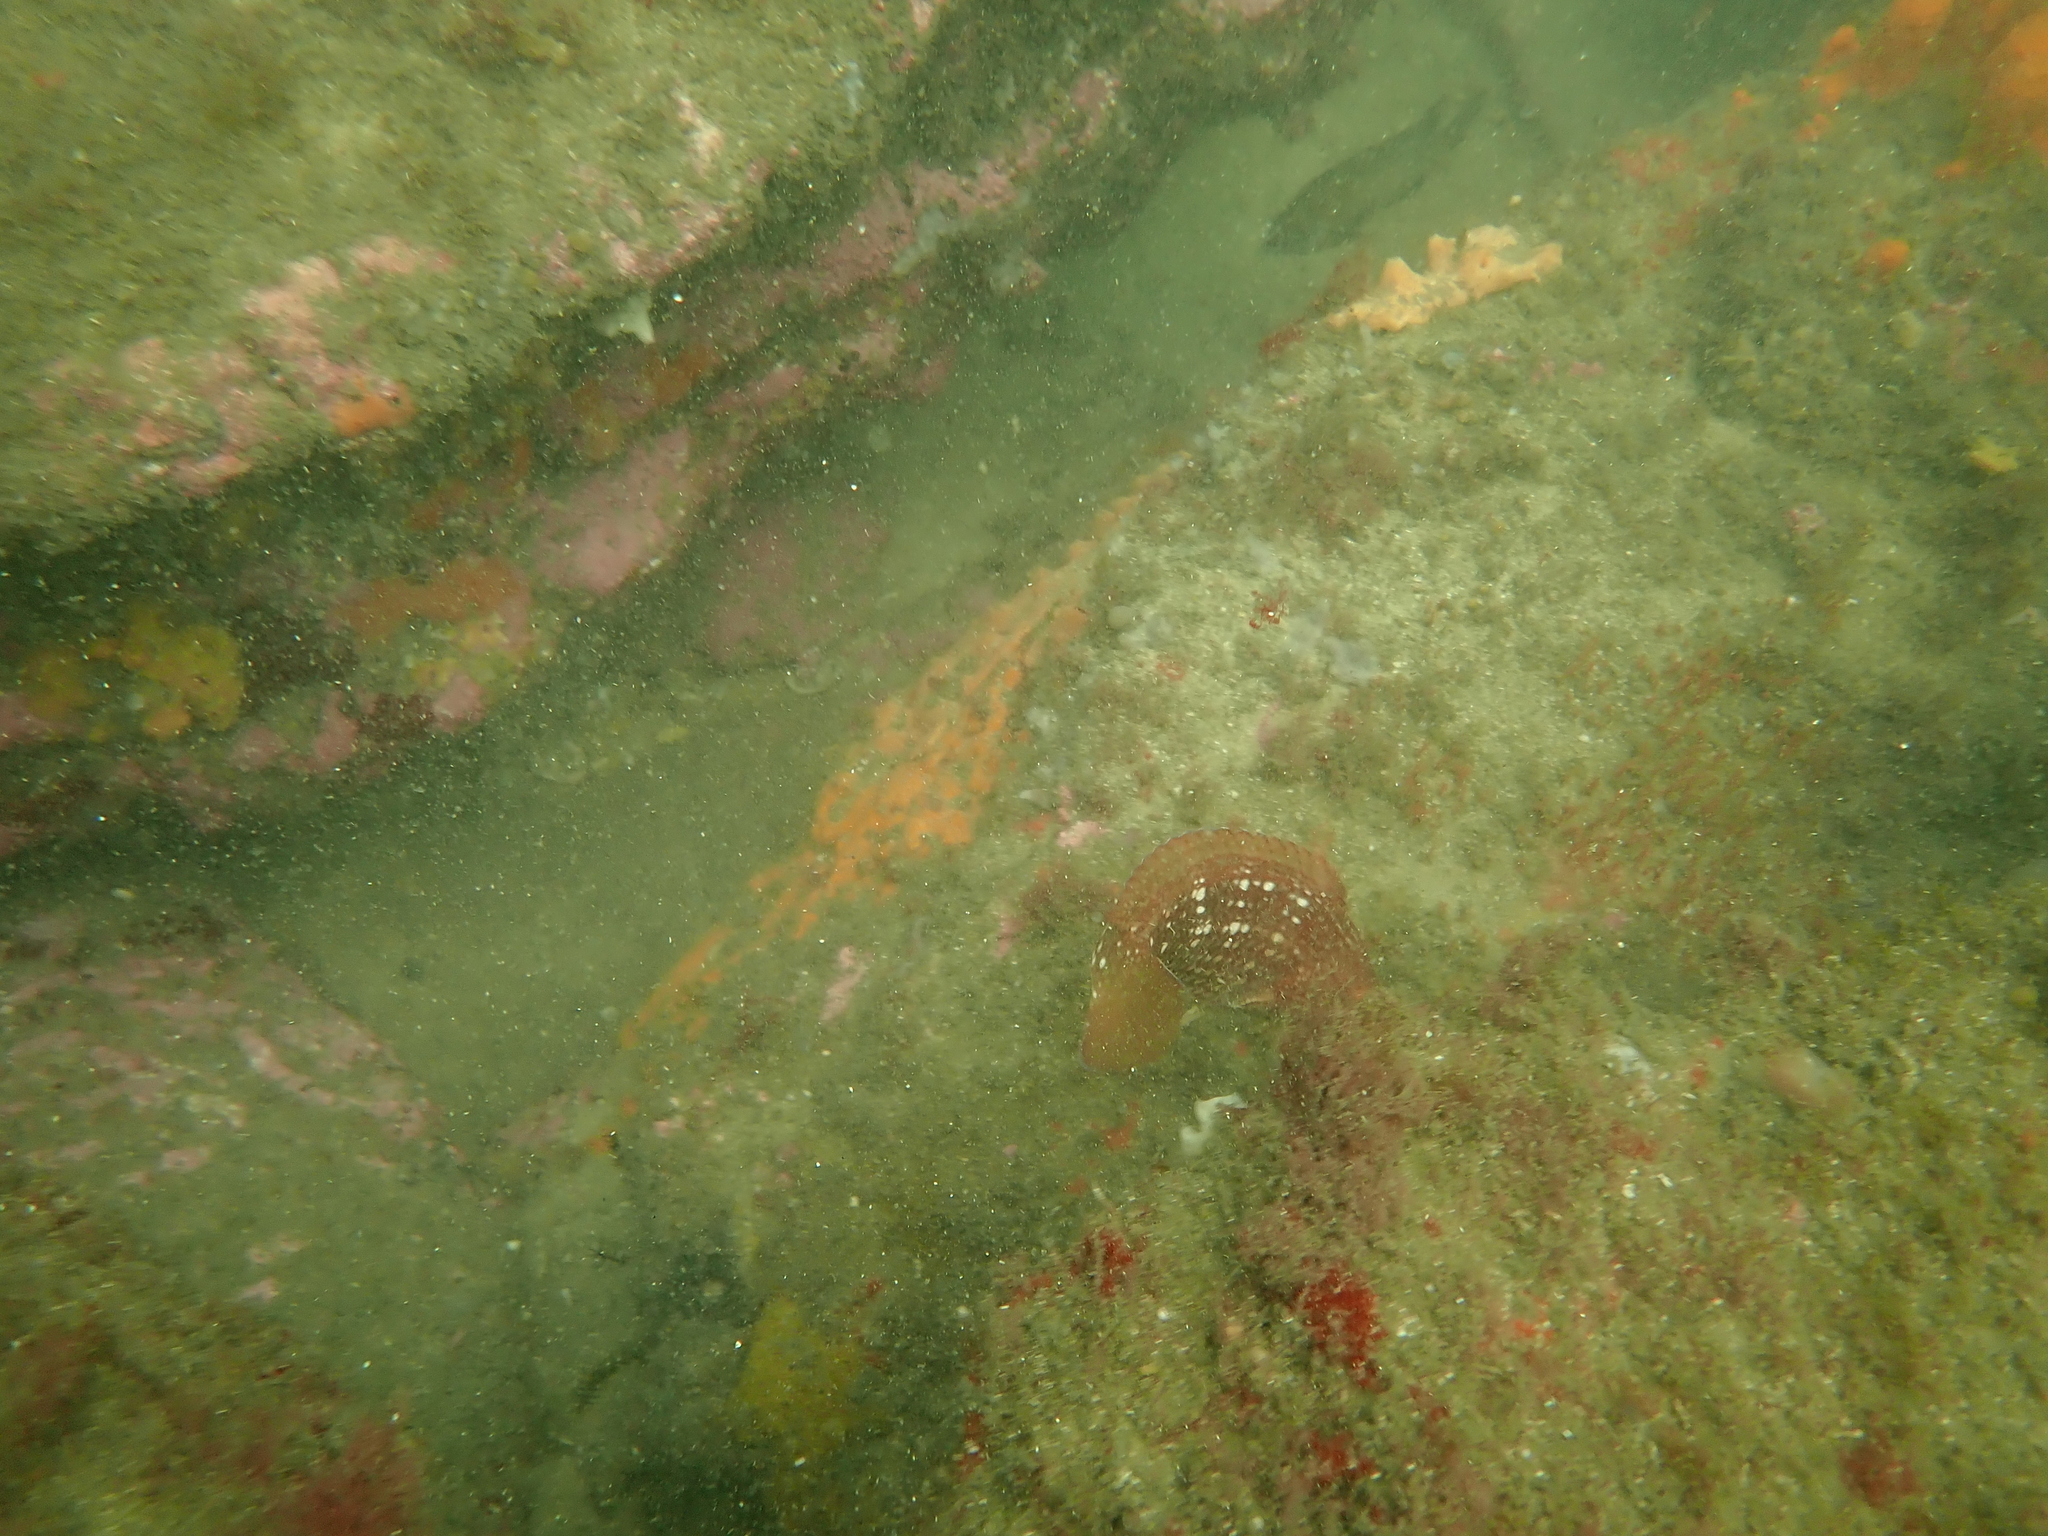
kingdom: Animalia
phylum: Chordata
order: Perciformes
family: Labridae
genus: Notolabrus
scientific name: Notolabrus gymnogenis
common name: Crimson banded wrasse
